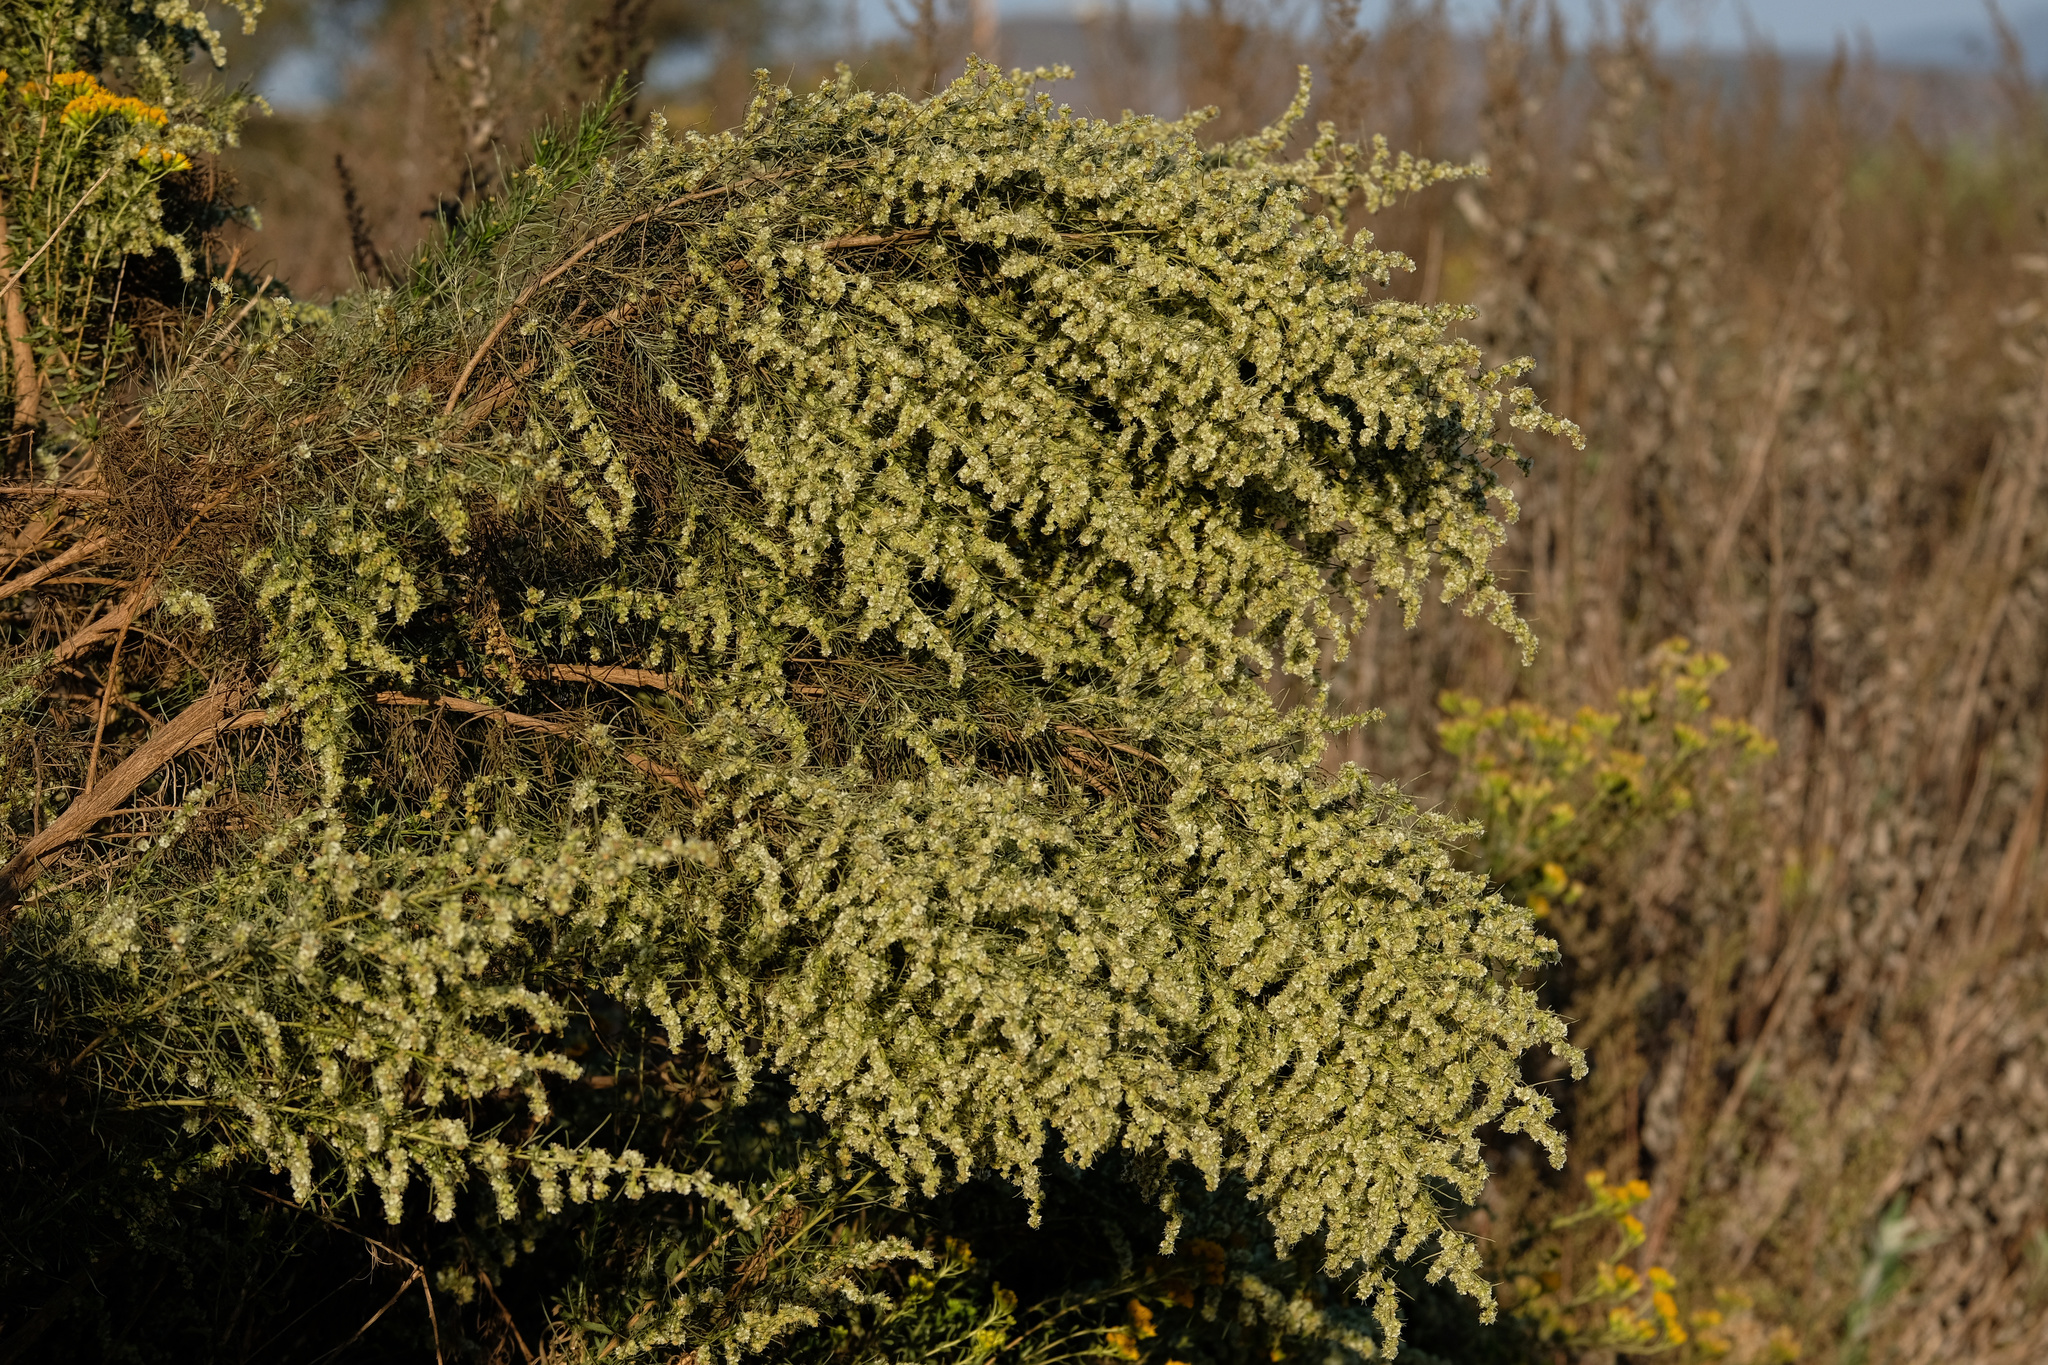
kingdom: Plantae
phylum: Tracheophyta
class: Magnoliopsida
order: Asterales
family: Asteraceae
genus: Ambrosia
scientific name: Ambrosia monogyra
